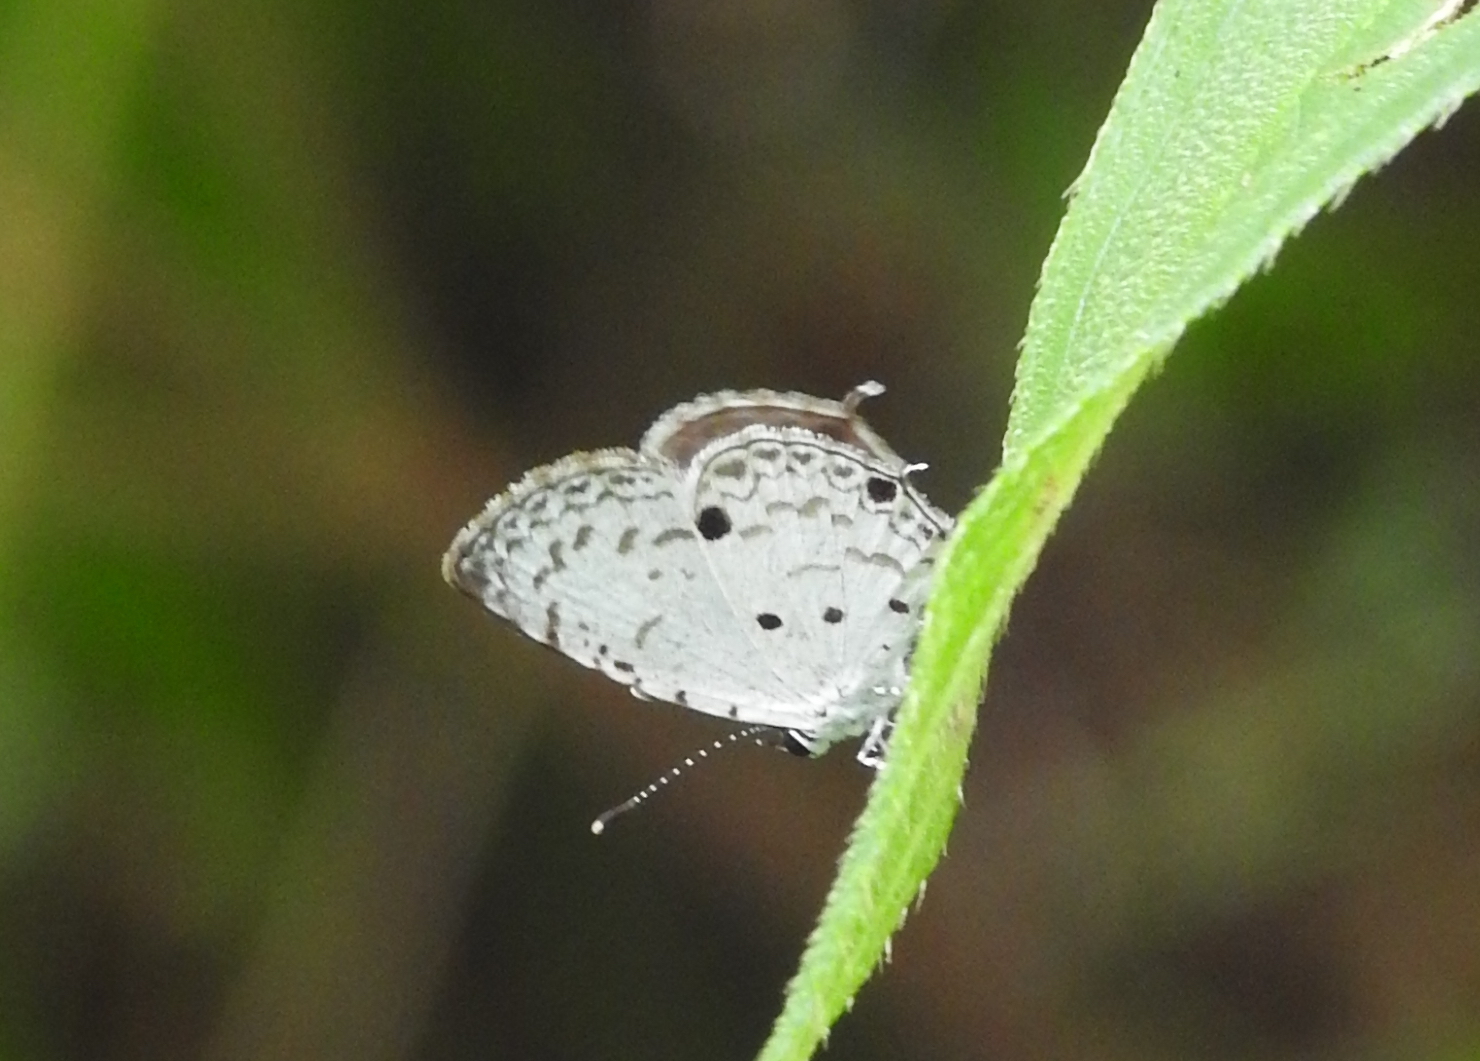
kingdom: Animalia
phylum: Arthropoda
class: Insecta
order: Lepidoptera
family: Lycaenidae
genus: Megisba
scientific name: Megisba malaya
